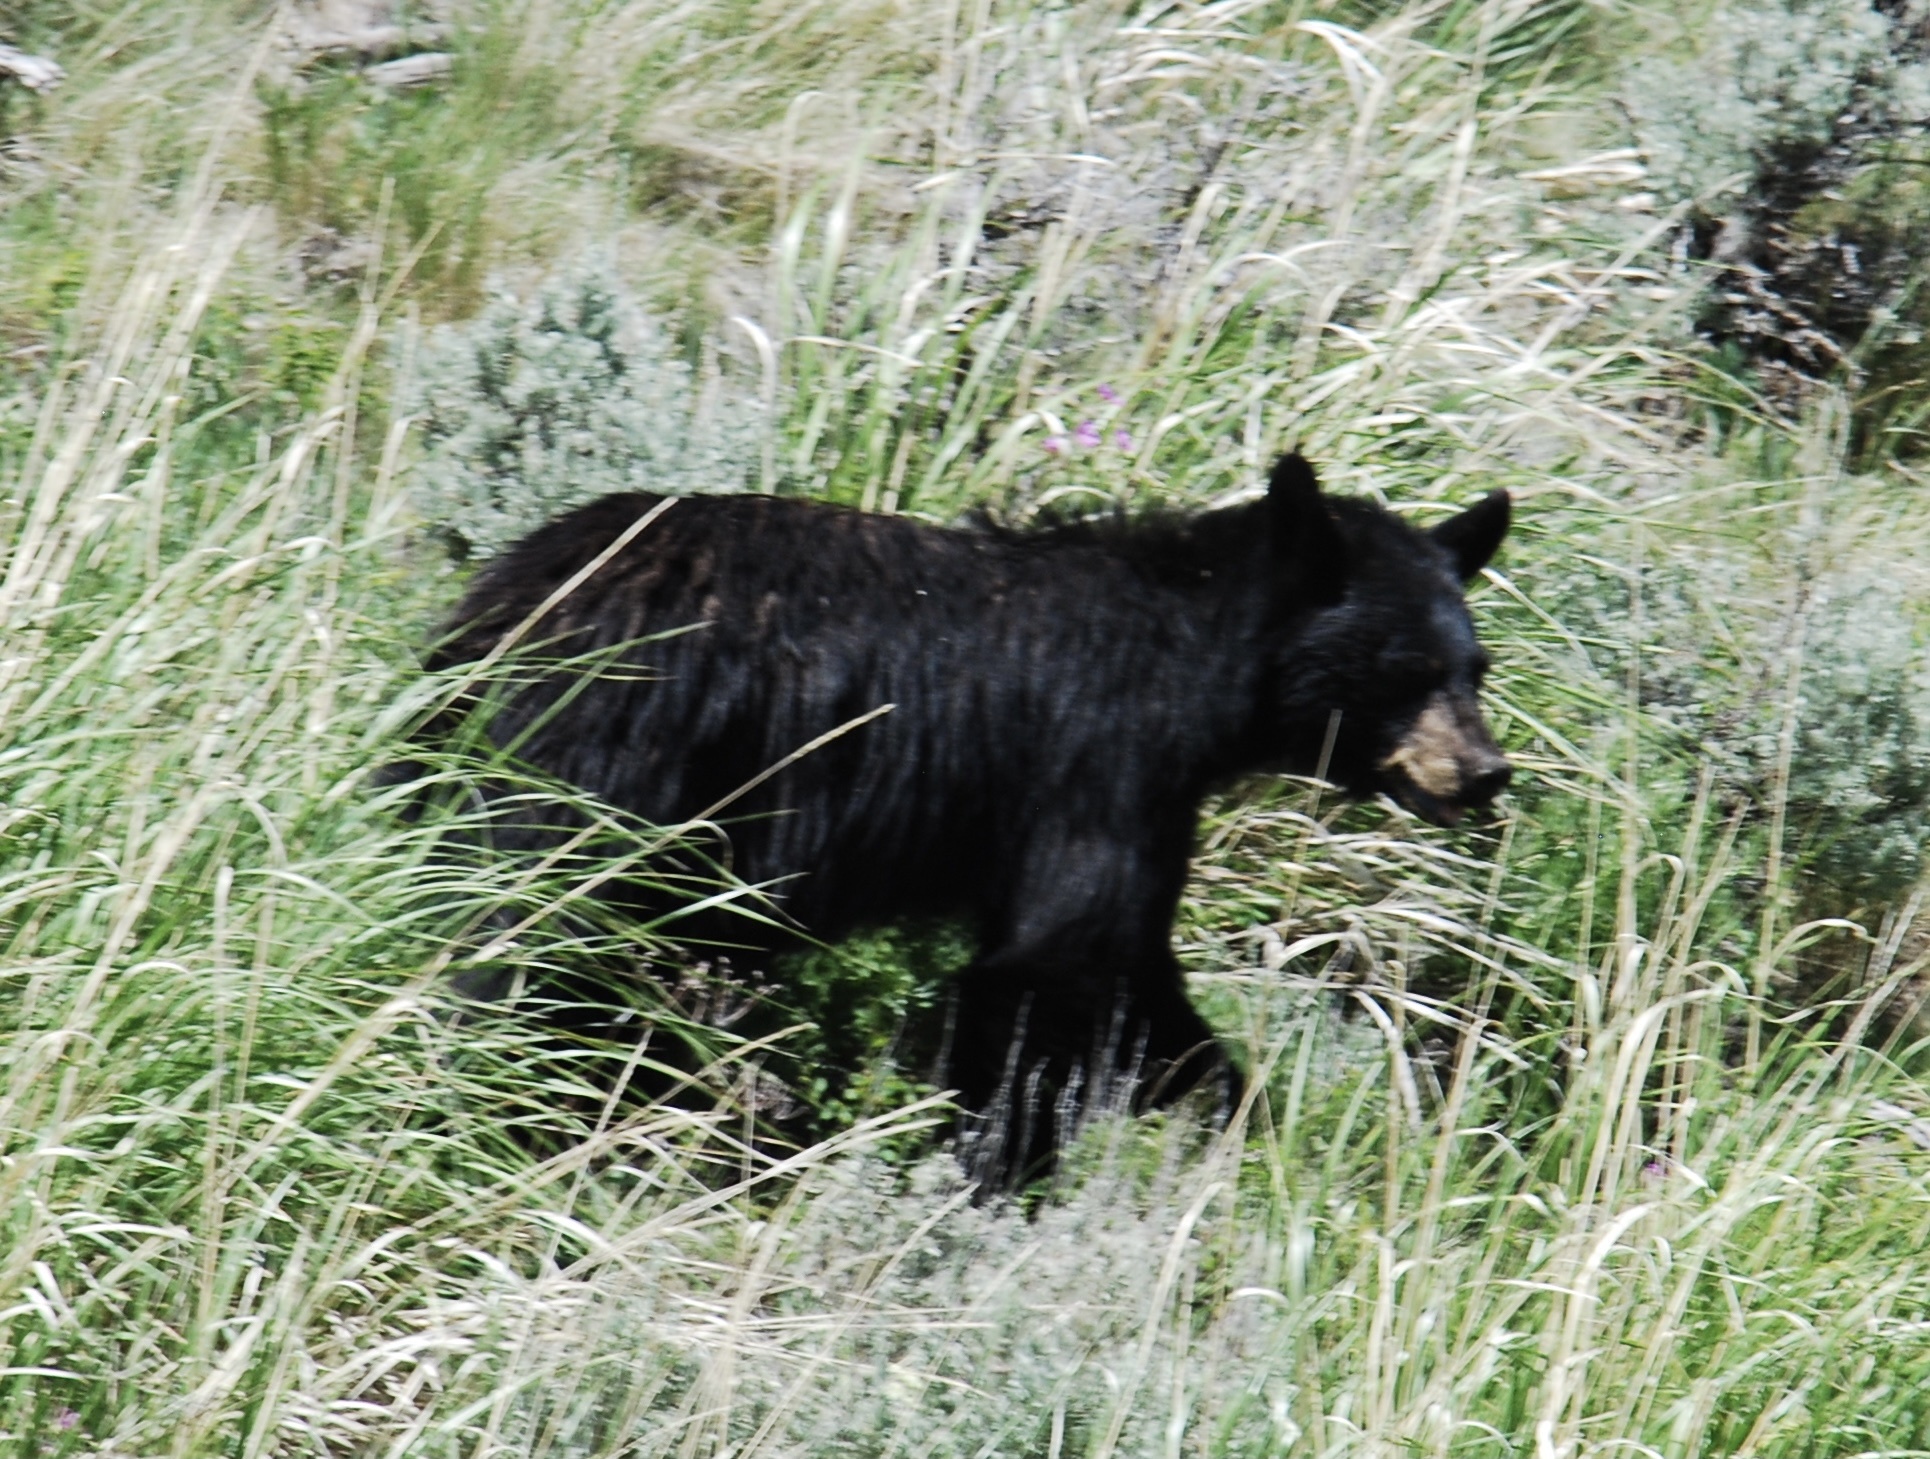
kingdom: Animalia
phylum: Chordata
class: Mammalia
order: Carnivora
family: Ursidae
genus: Ursus
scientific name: Ursus americanus
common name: American black bear
